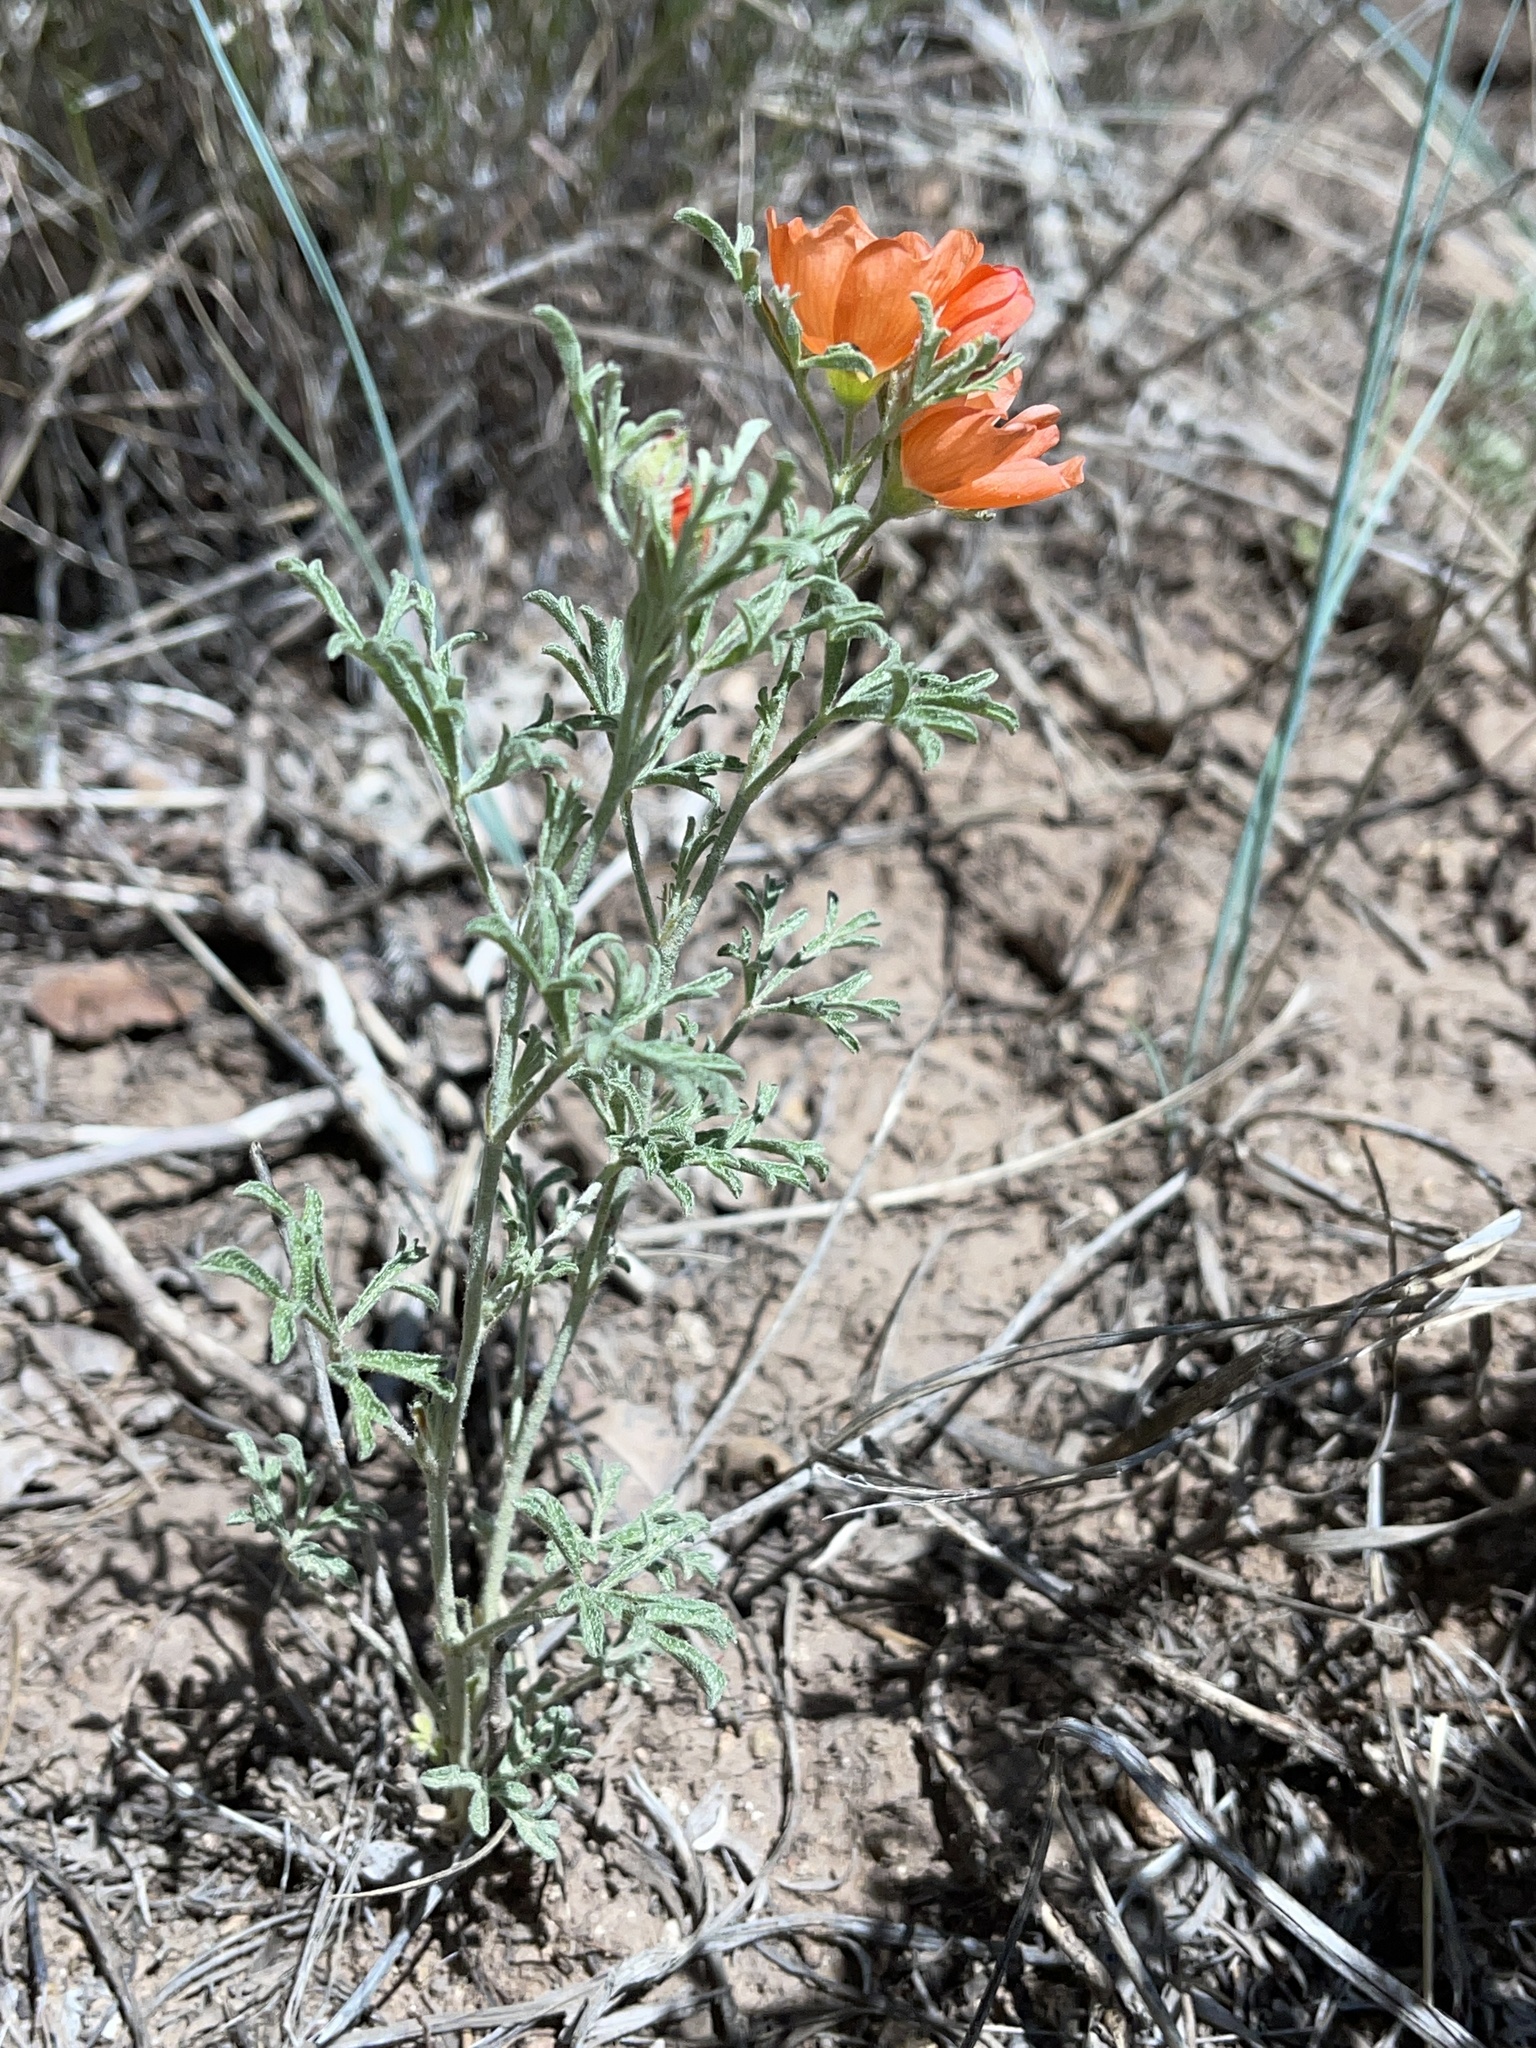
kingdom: Plantae
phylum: Tracheophyta
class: Magnoliopsida
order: Malvales
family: Malvaceae
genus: Sphaeralcea
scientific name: Sphaeralcea coccinea
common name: Moss-rose
